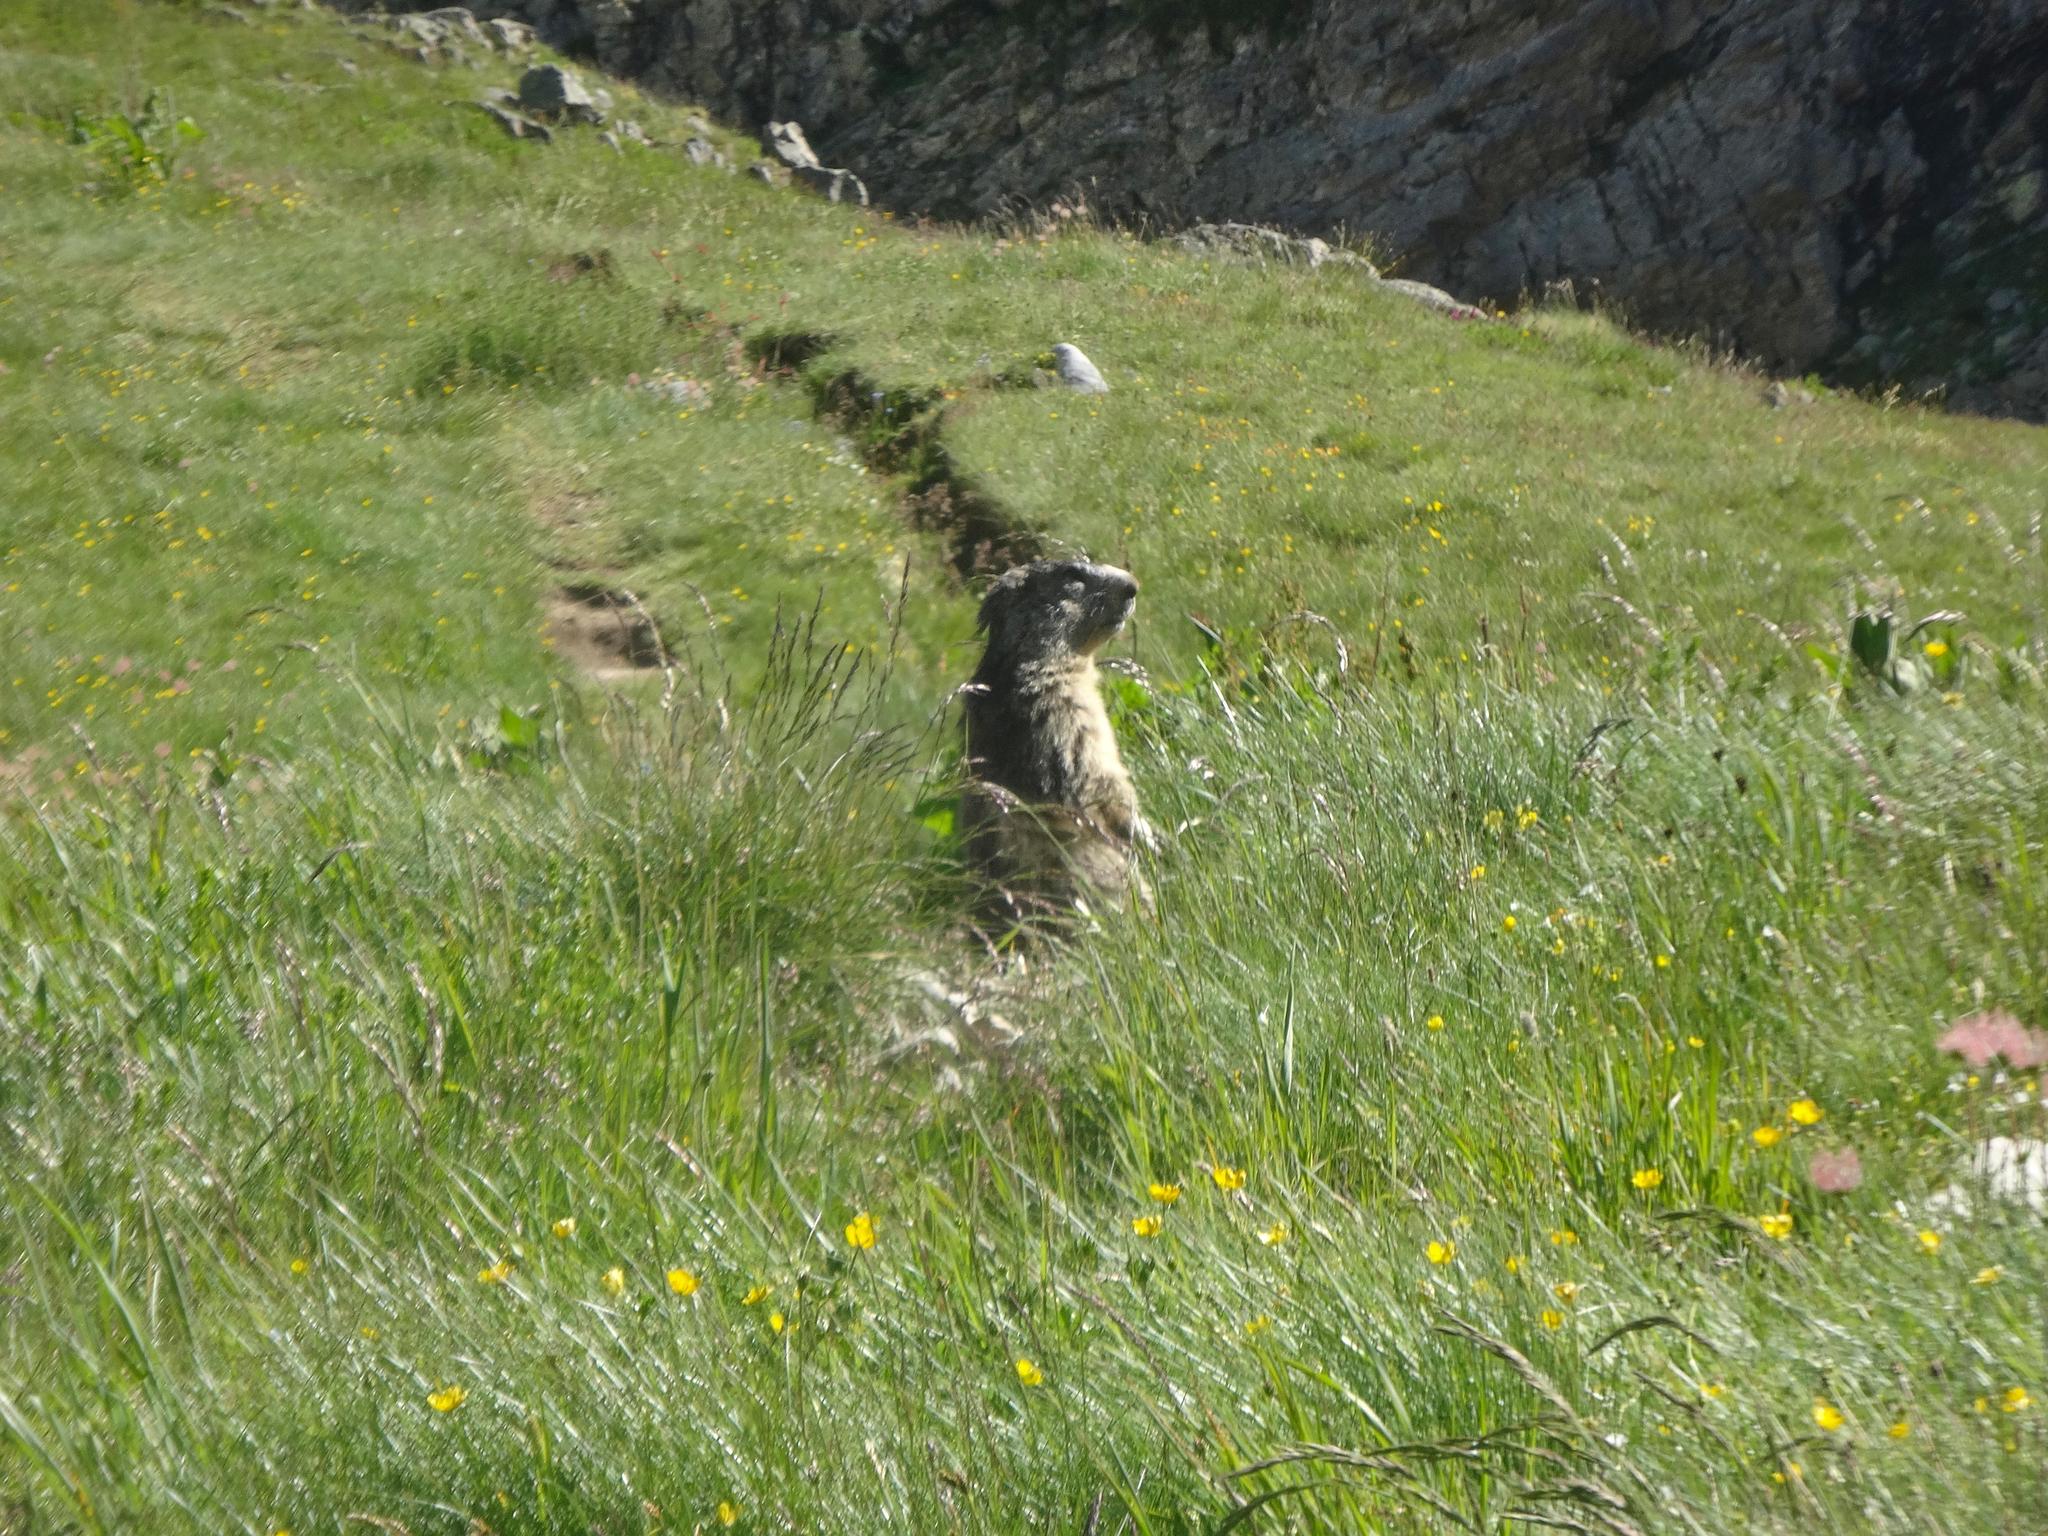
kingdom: Animalia
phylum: Chordata
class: Mammalia
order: Rodentia
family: Sciuridae
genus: Marmota
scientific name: Marmota marmota
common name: Alpine marmot
